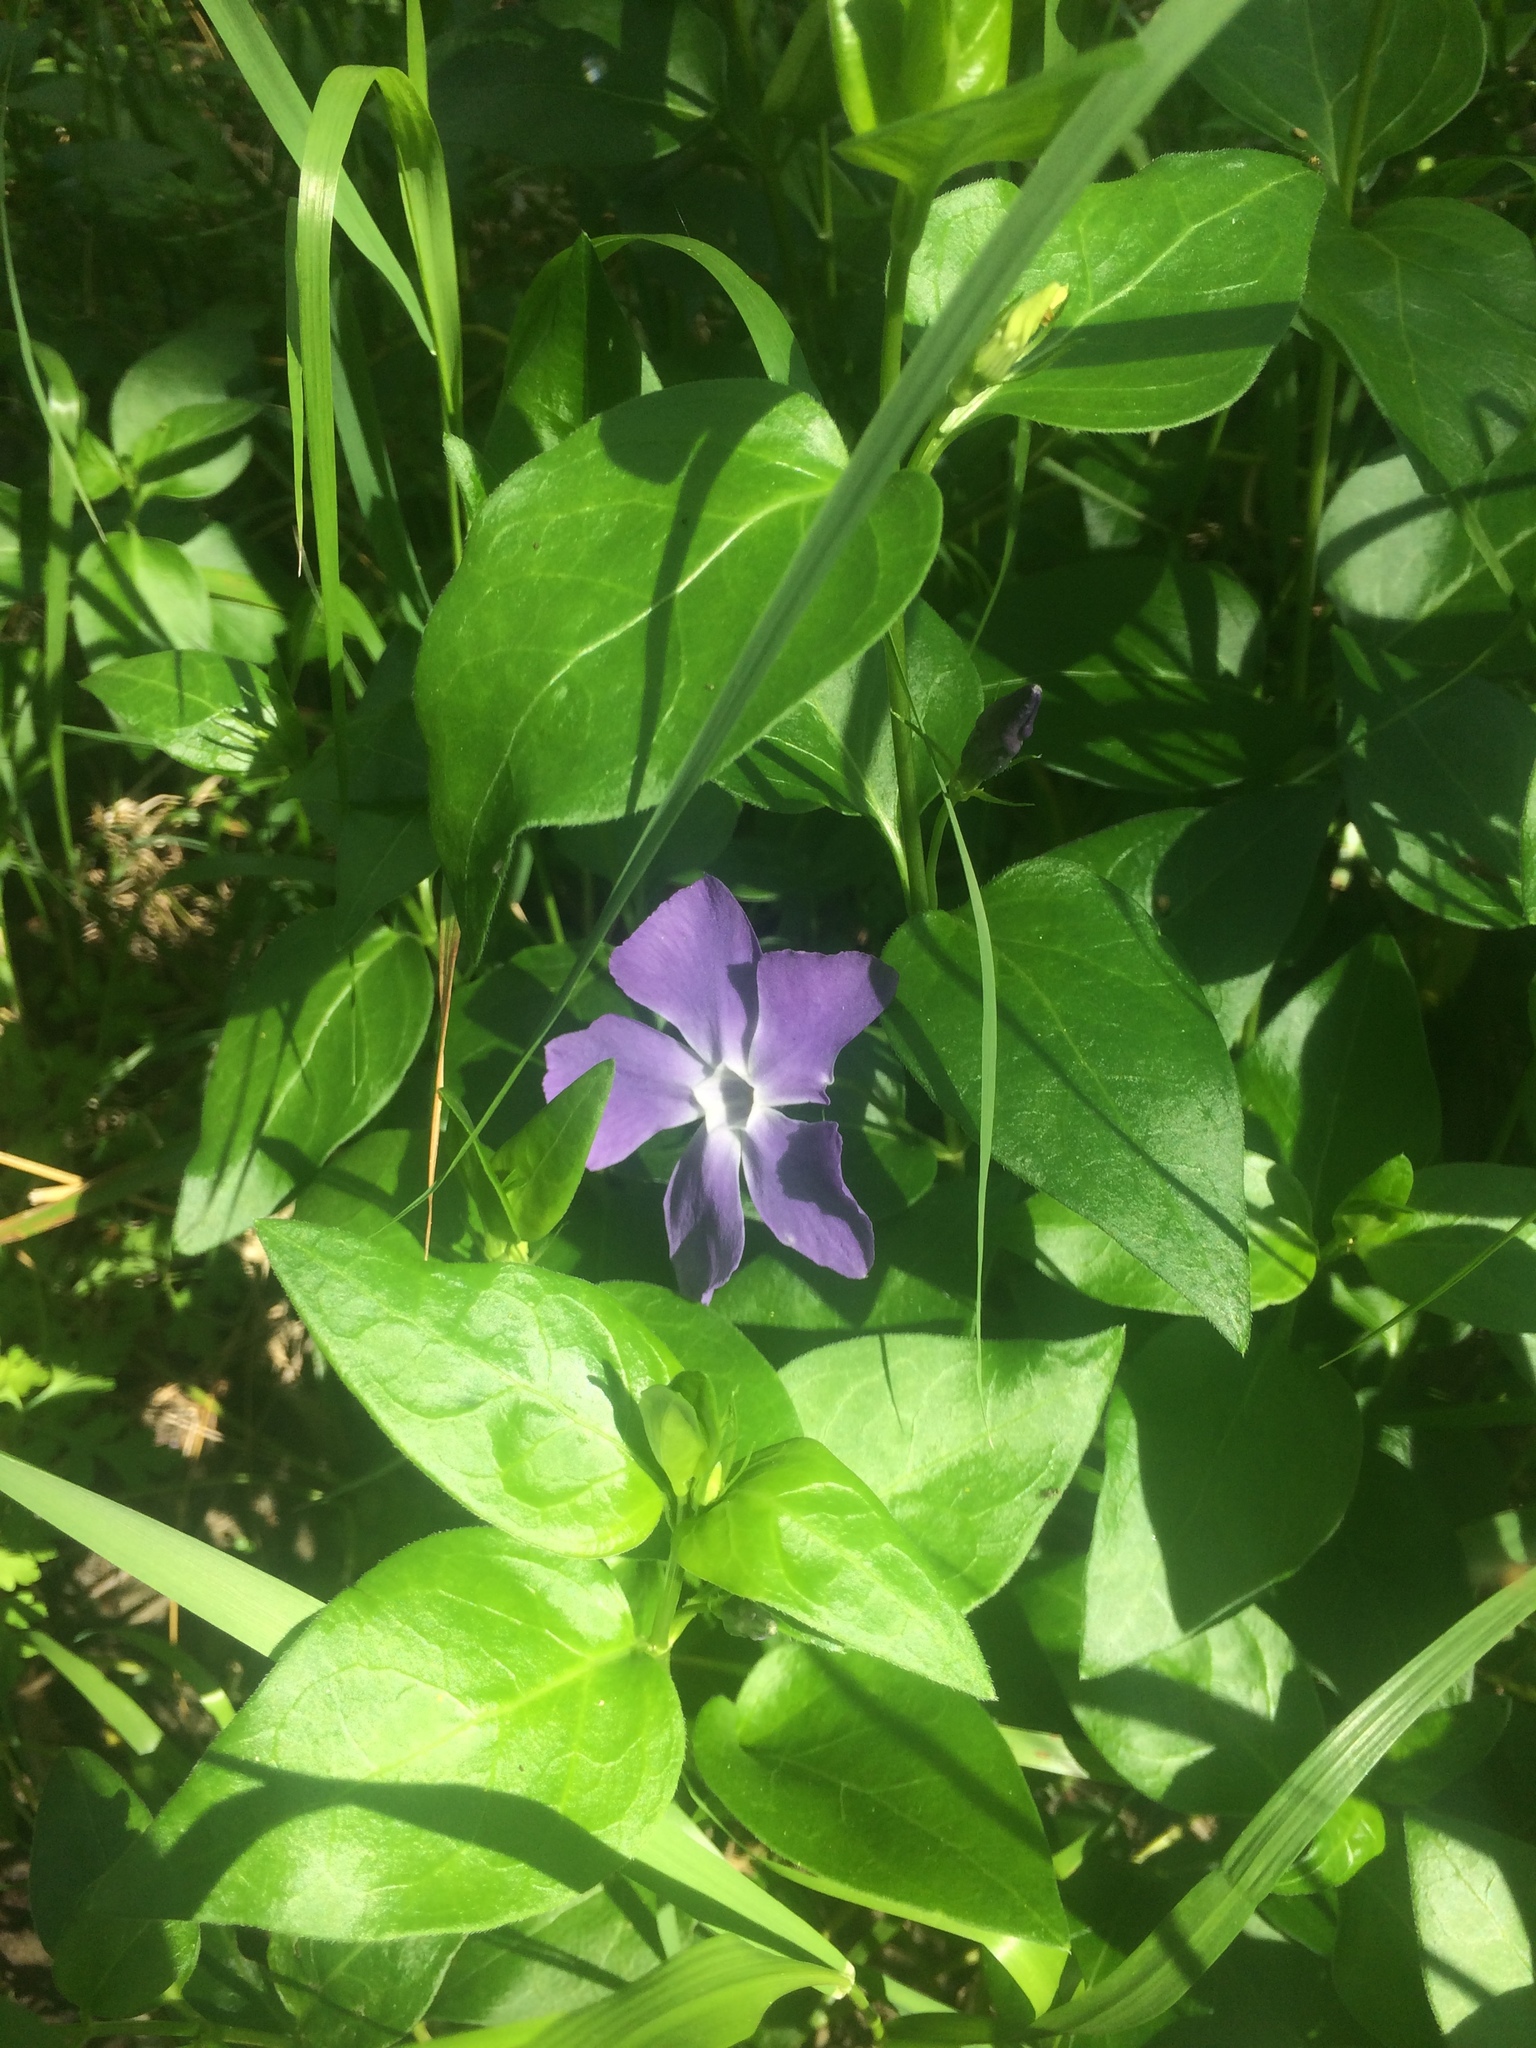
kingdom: Plantae
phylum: Tracheophyta
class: Magnoliopsida
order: Gentianales
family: Apocynaceae
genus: Vinca
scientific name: Vinca major
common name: Greater periwinkle
